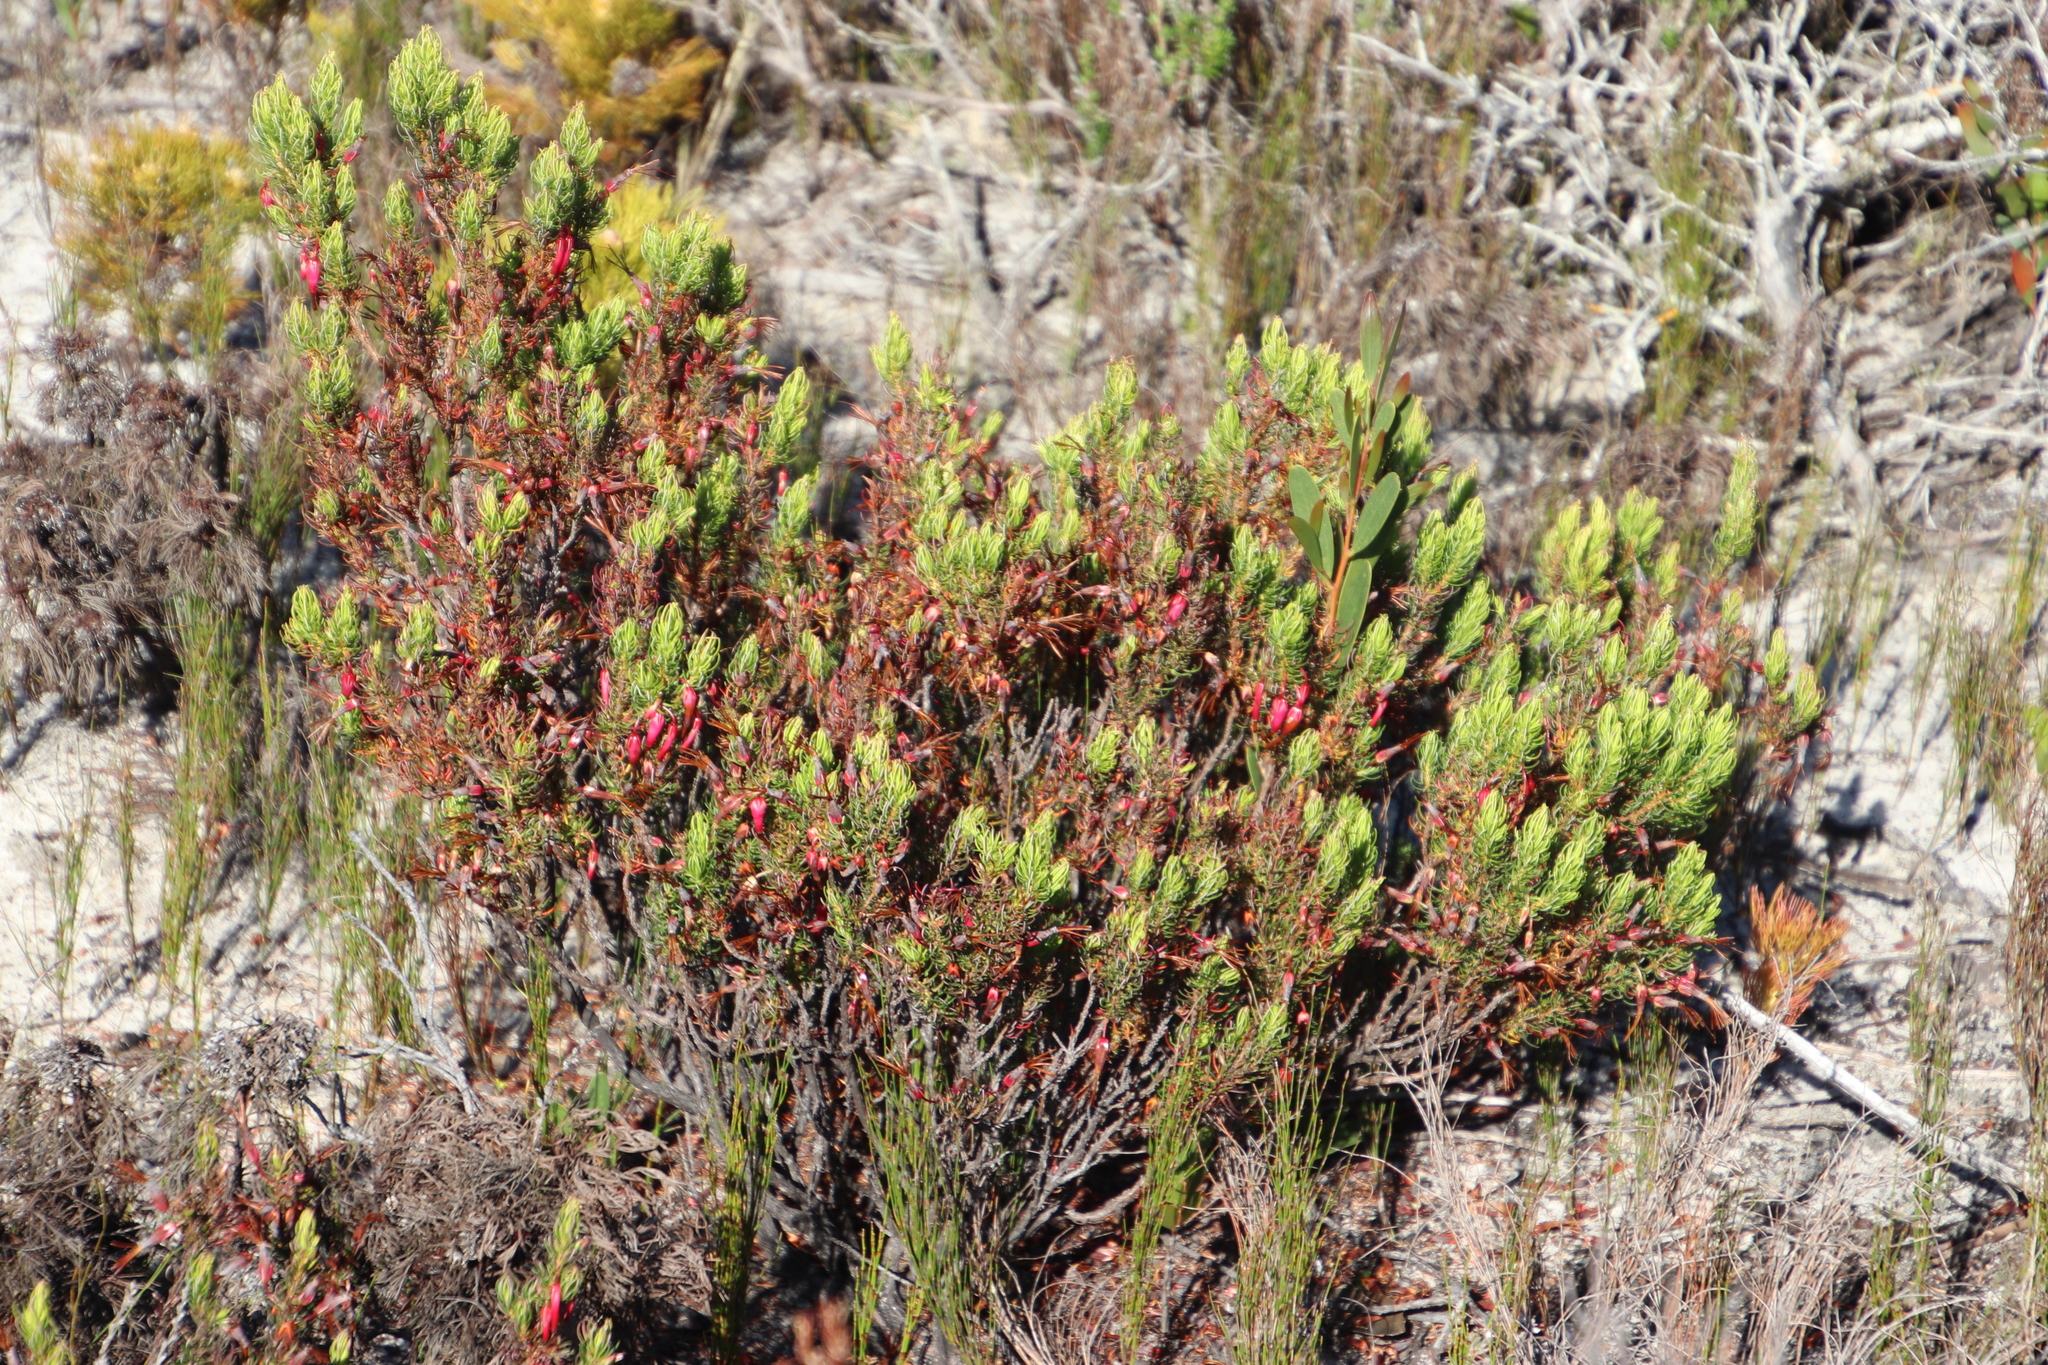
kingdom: Plantae
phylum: Tracheophyta
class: Magnoliopsida
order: Ericales
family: Ericaceae
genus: Erica
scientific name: Erica plukenetii
